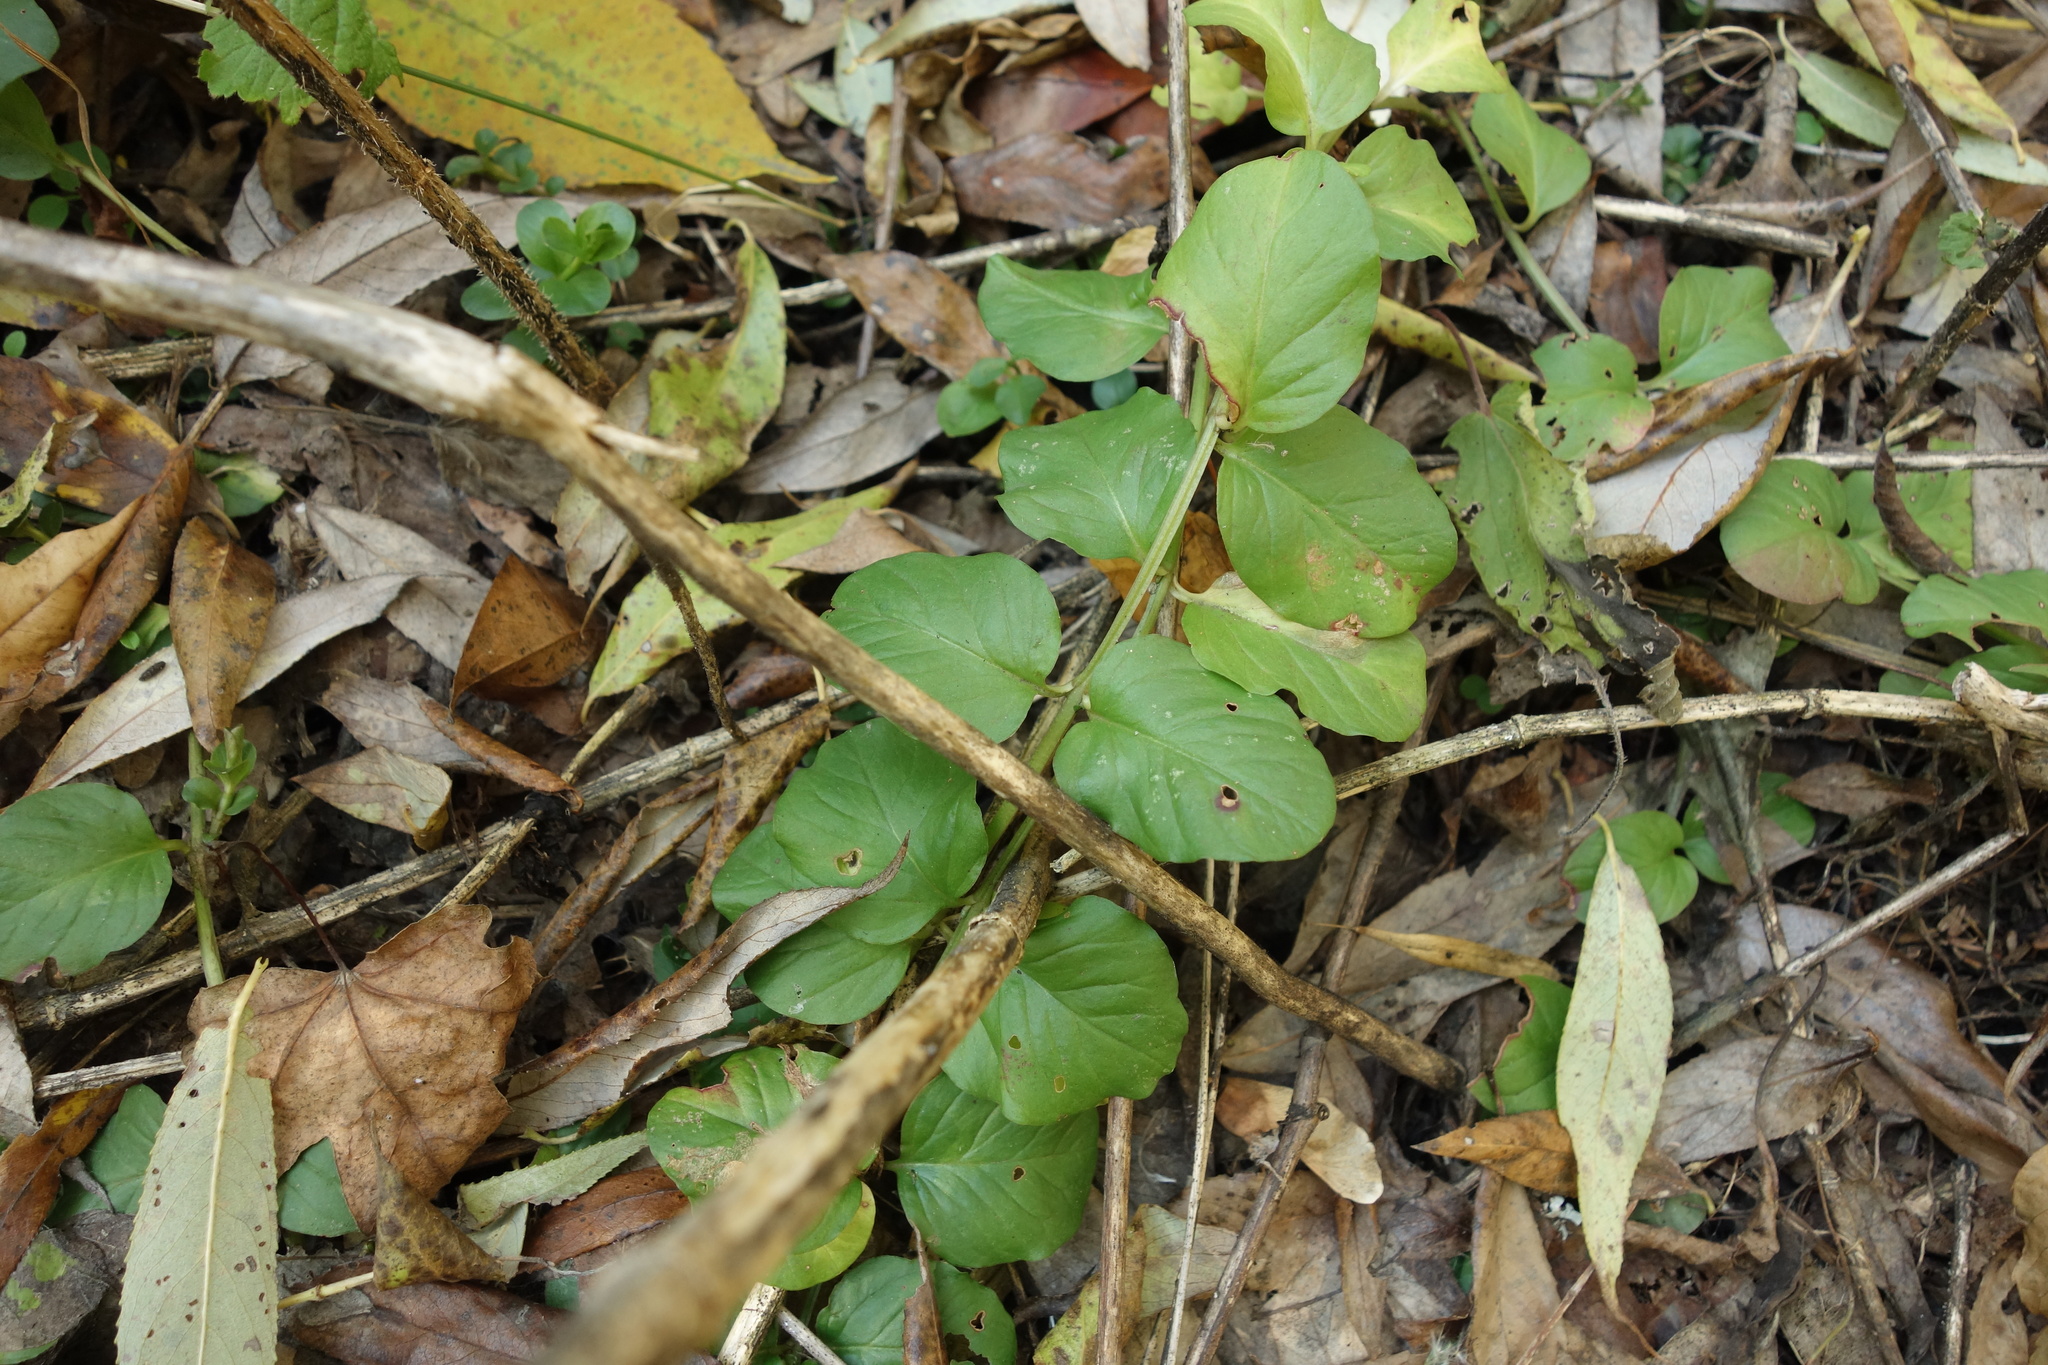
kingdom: Plantae
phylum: Tracheophyta
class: Magnoliopsida
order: Ericales
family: Primulaceae
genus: Lysimachia
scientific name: Lysimachia nummularia
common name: Moneywort
